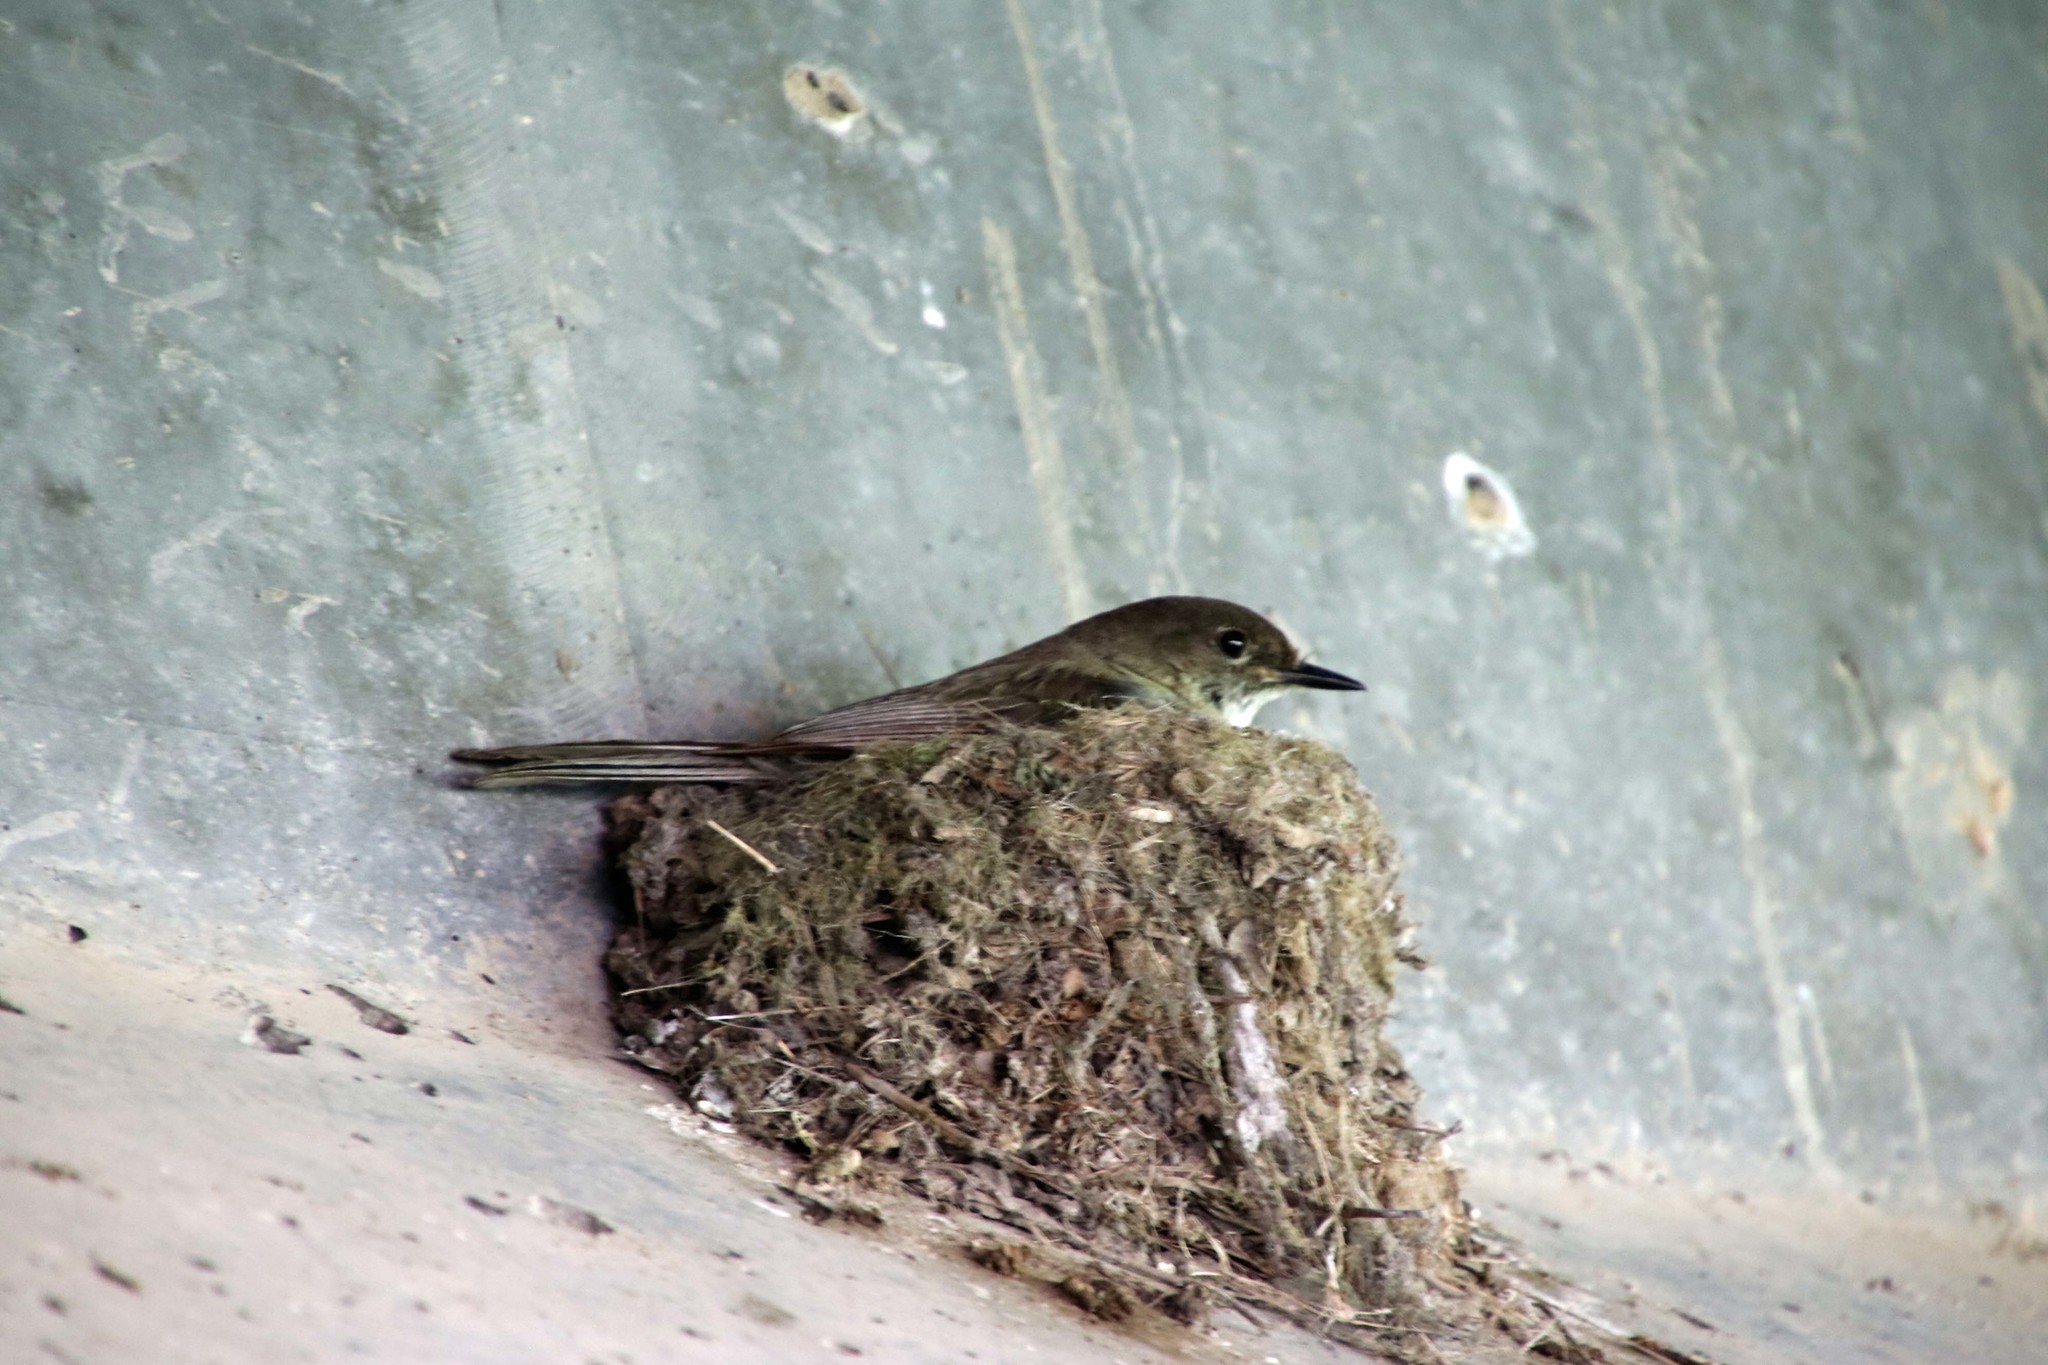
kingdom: Animalia
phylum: Chordata
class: Aves
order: Passeriformes
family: Tyrannidae
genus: Sayornis
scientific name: Sayornis phoebe
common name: Eastern phoebe
